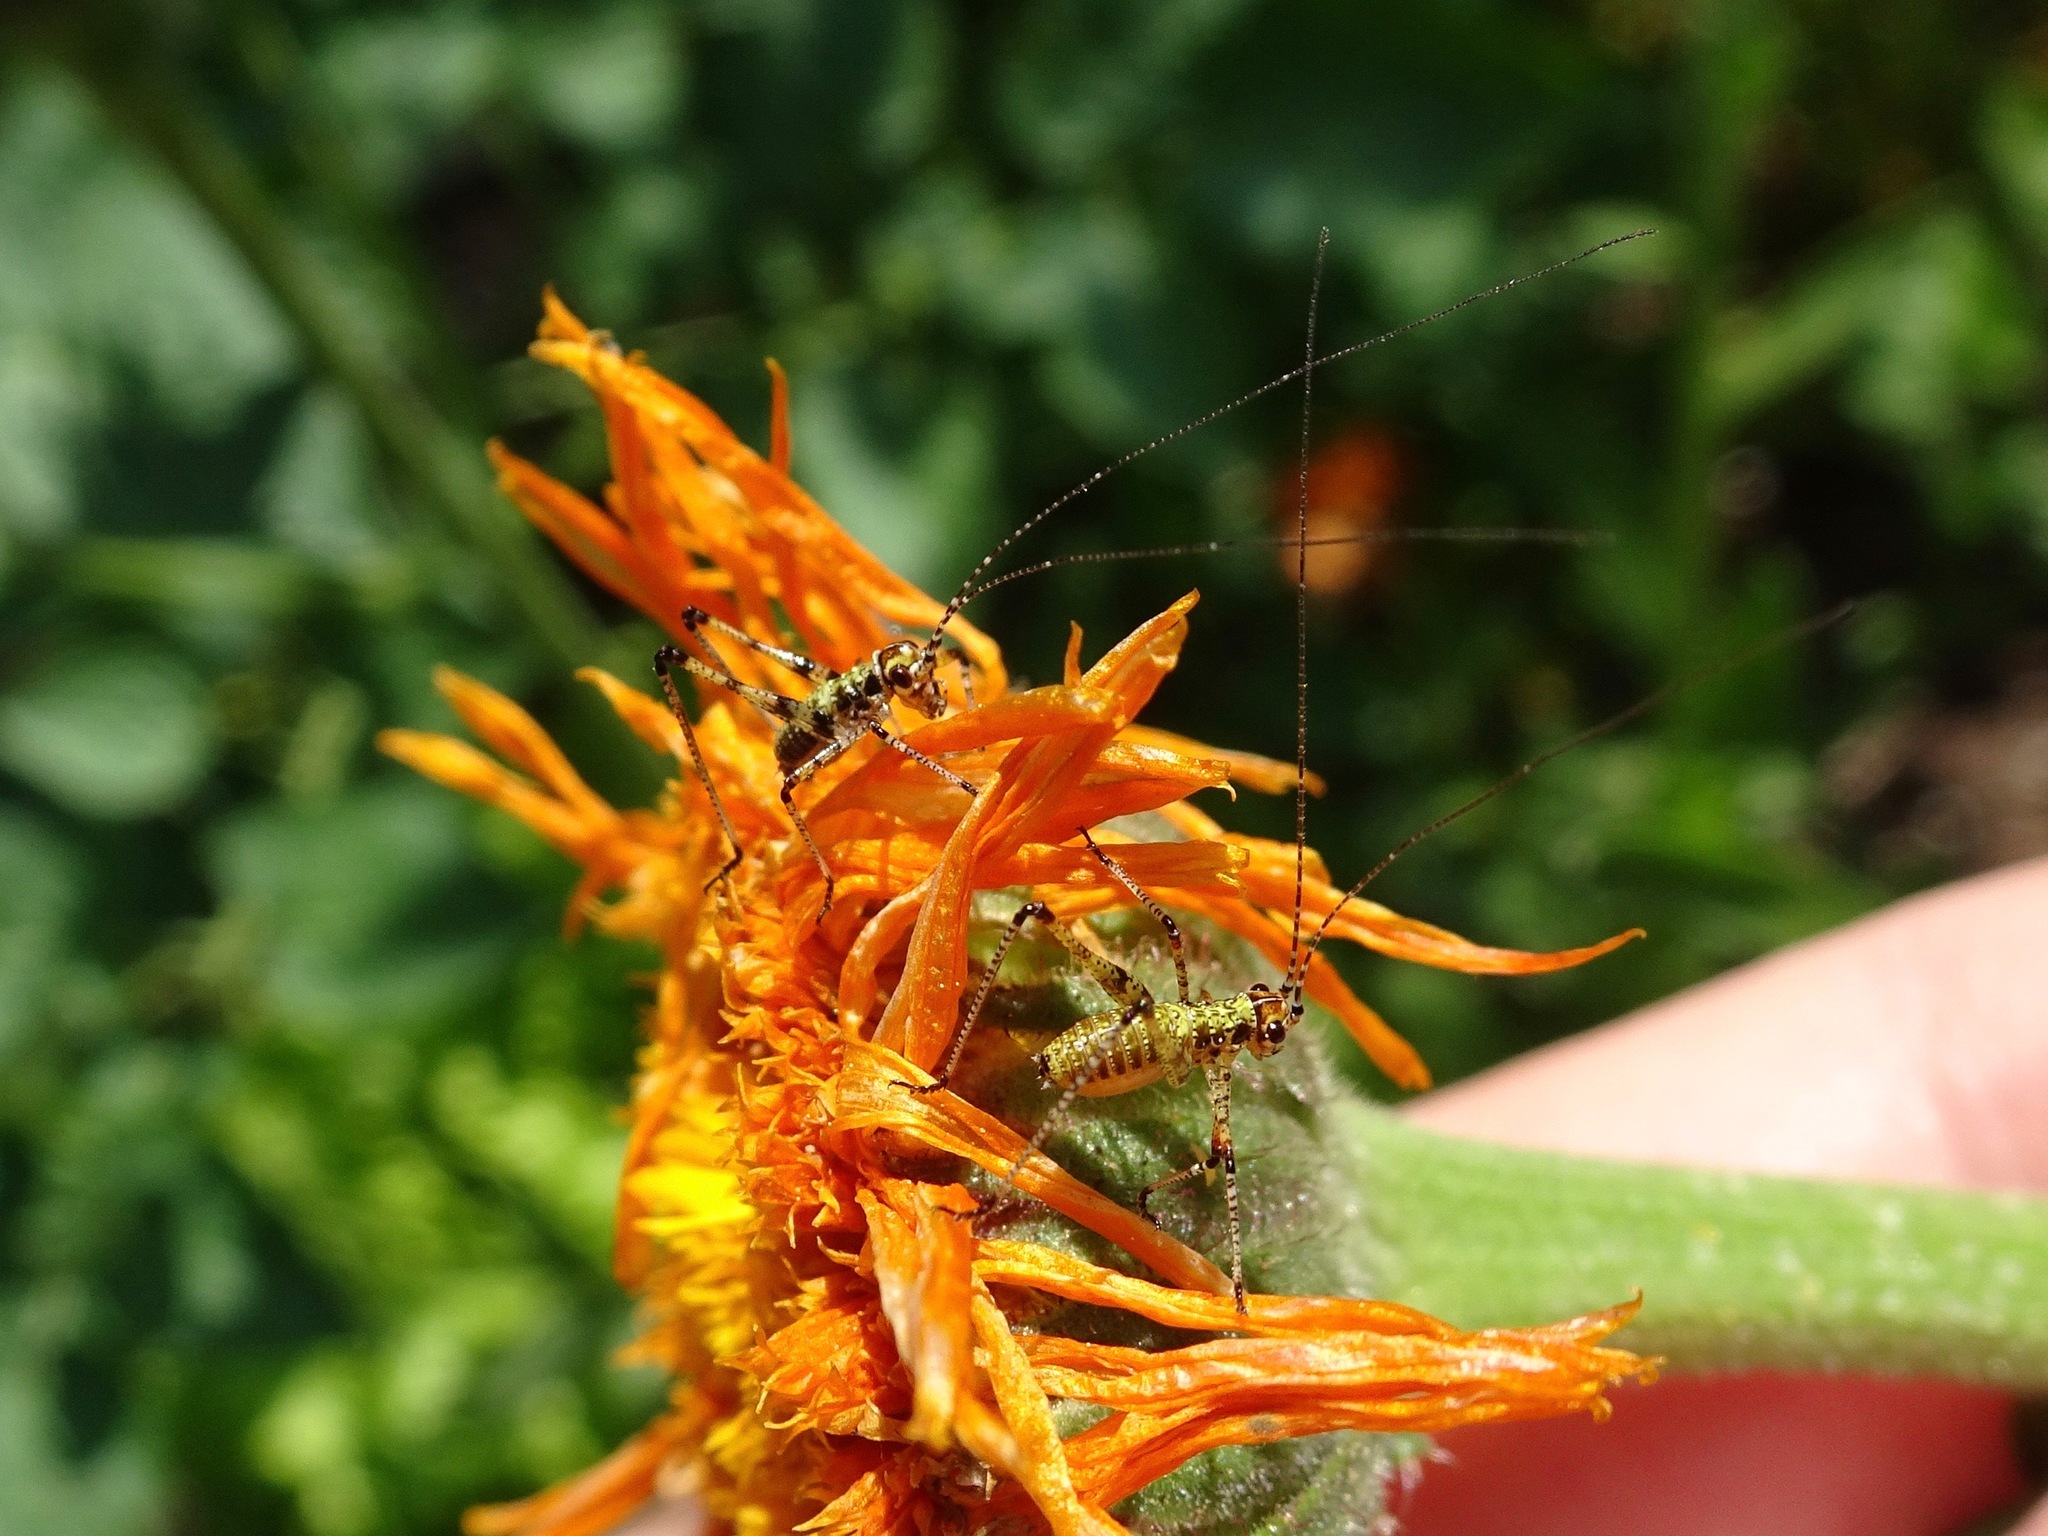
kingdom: Animalia
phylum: Arthropoda
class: Insecta
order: Orthoptera
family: Tettigoniidae
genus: Phaneroptera
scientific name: Phaneroptera nana
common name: Southern sickle bush-cricket
